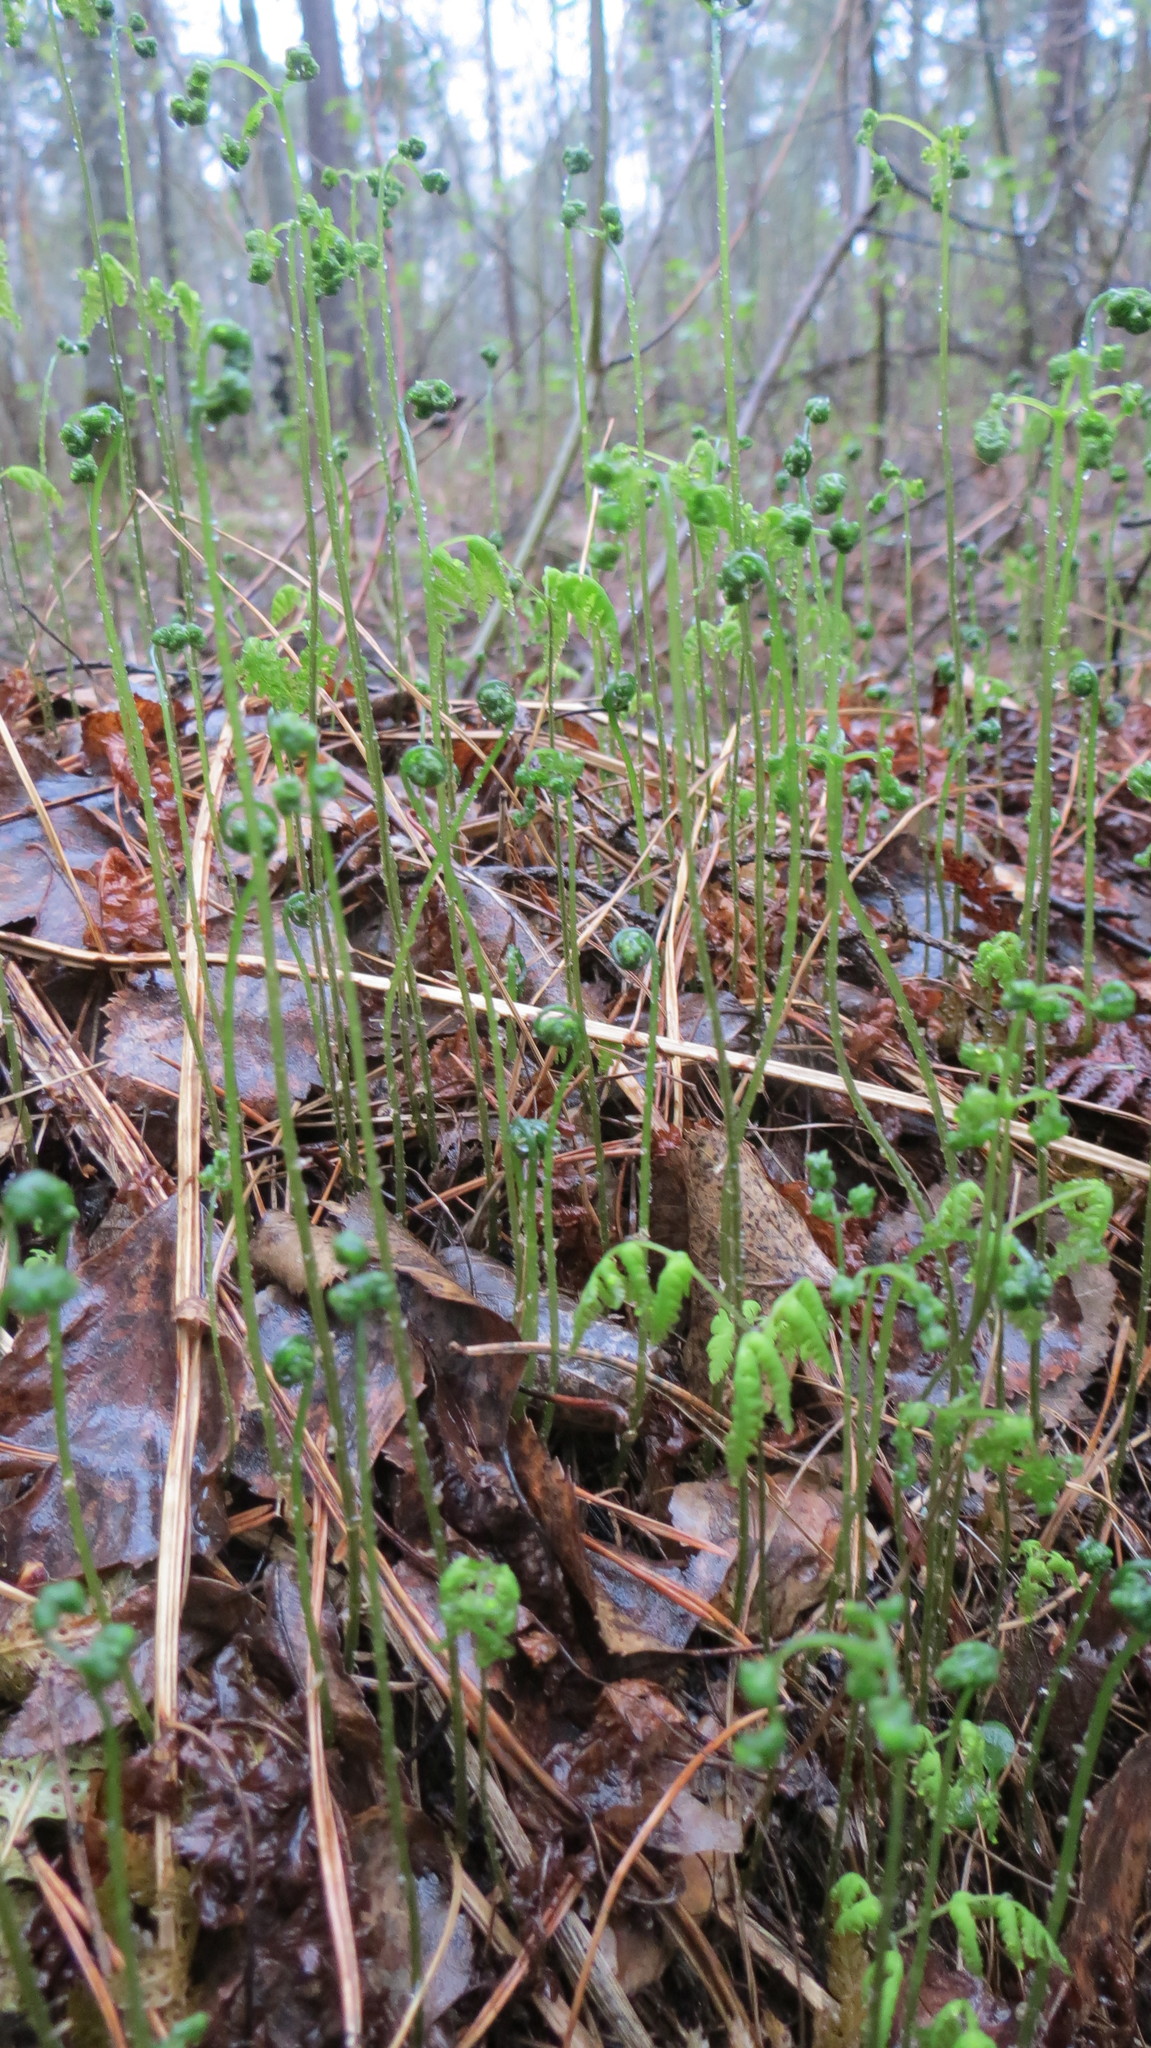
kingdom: Plantae
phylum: Tracheophyta
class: Polypodiopsida
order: Polypodiales
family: Cystopteridaceae
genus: Gymnocarpium
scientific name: Gymnocarpium dryopteris
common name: Oak fern
